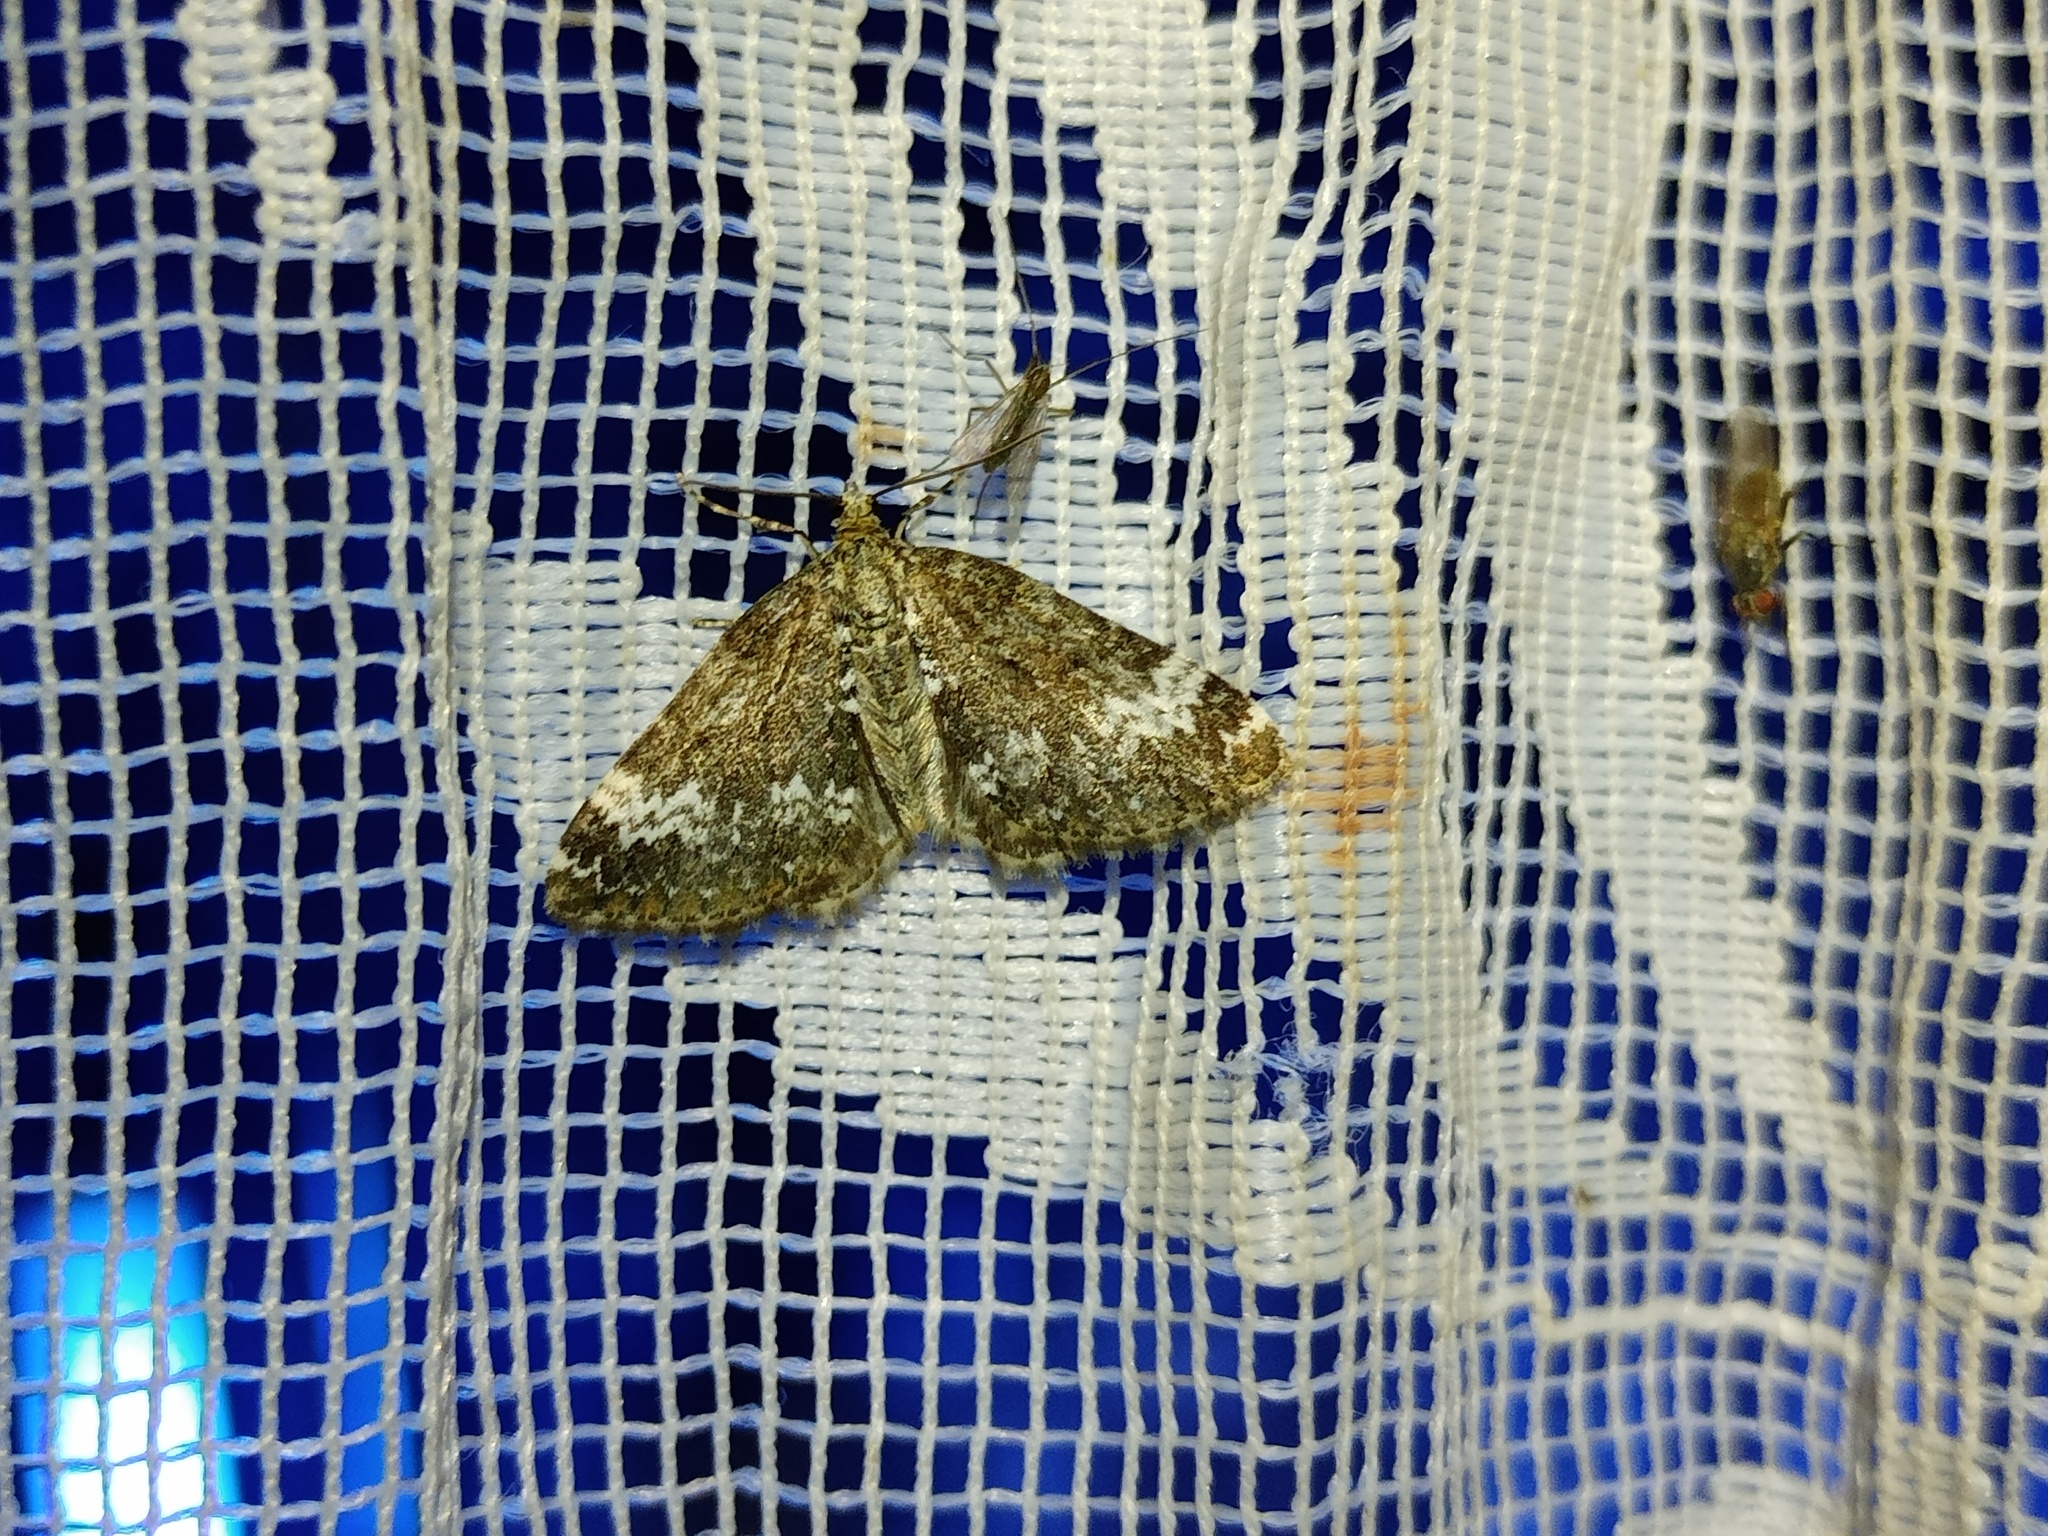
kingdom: Animalia
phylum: Arthropoda
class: Insecta
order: Lepidoptera
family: Geometridae
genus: Perizoma
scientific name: Perizoma alchemillata
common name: Small rivulet
